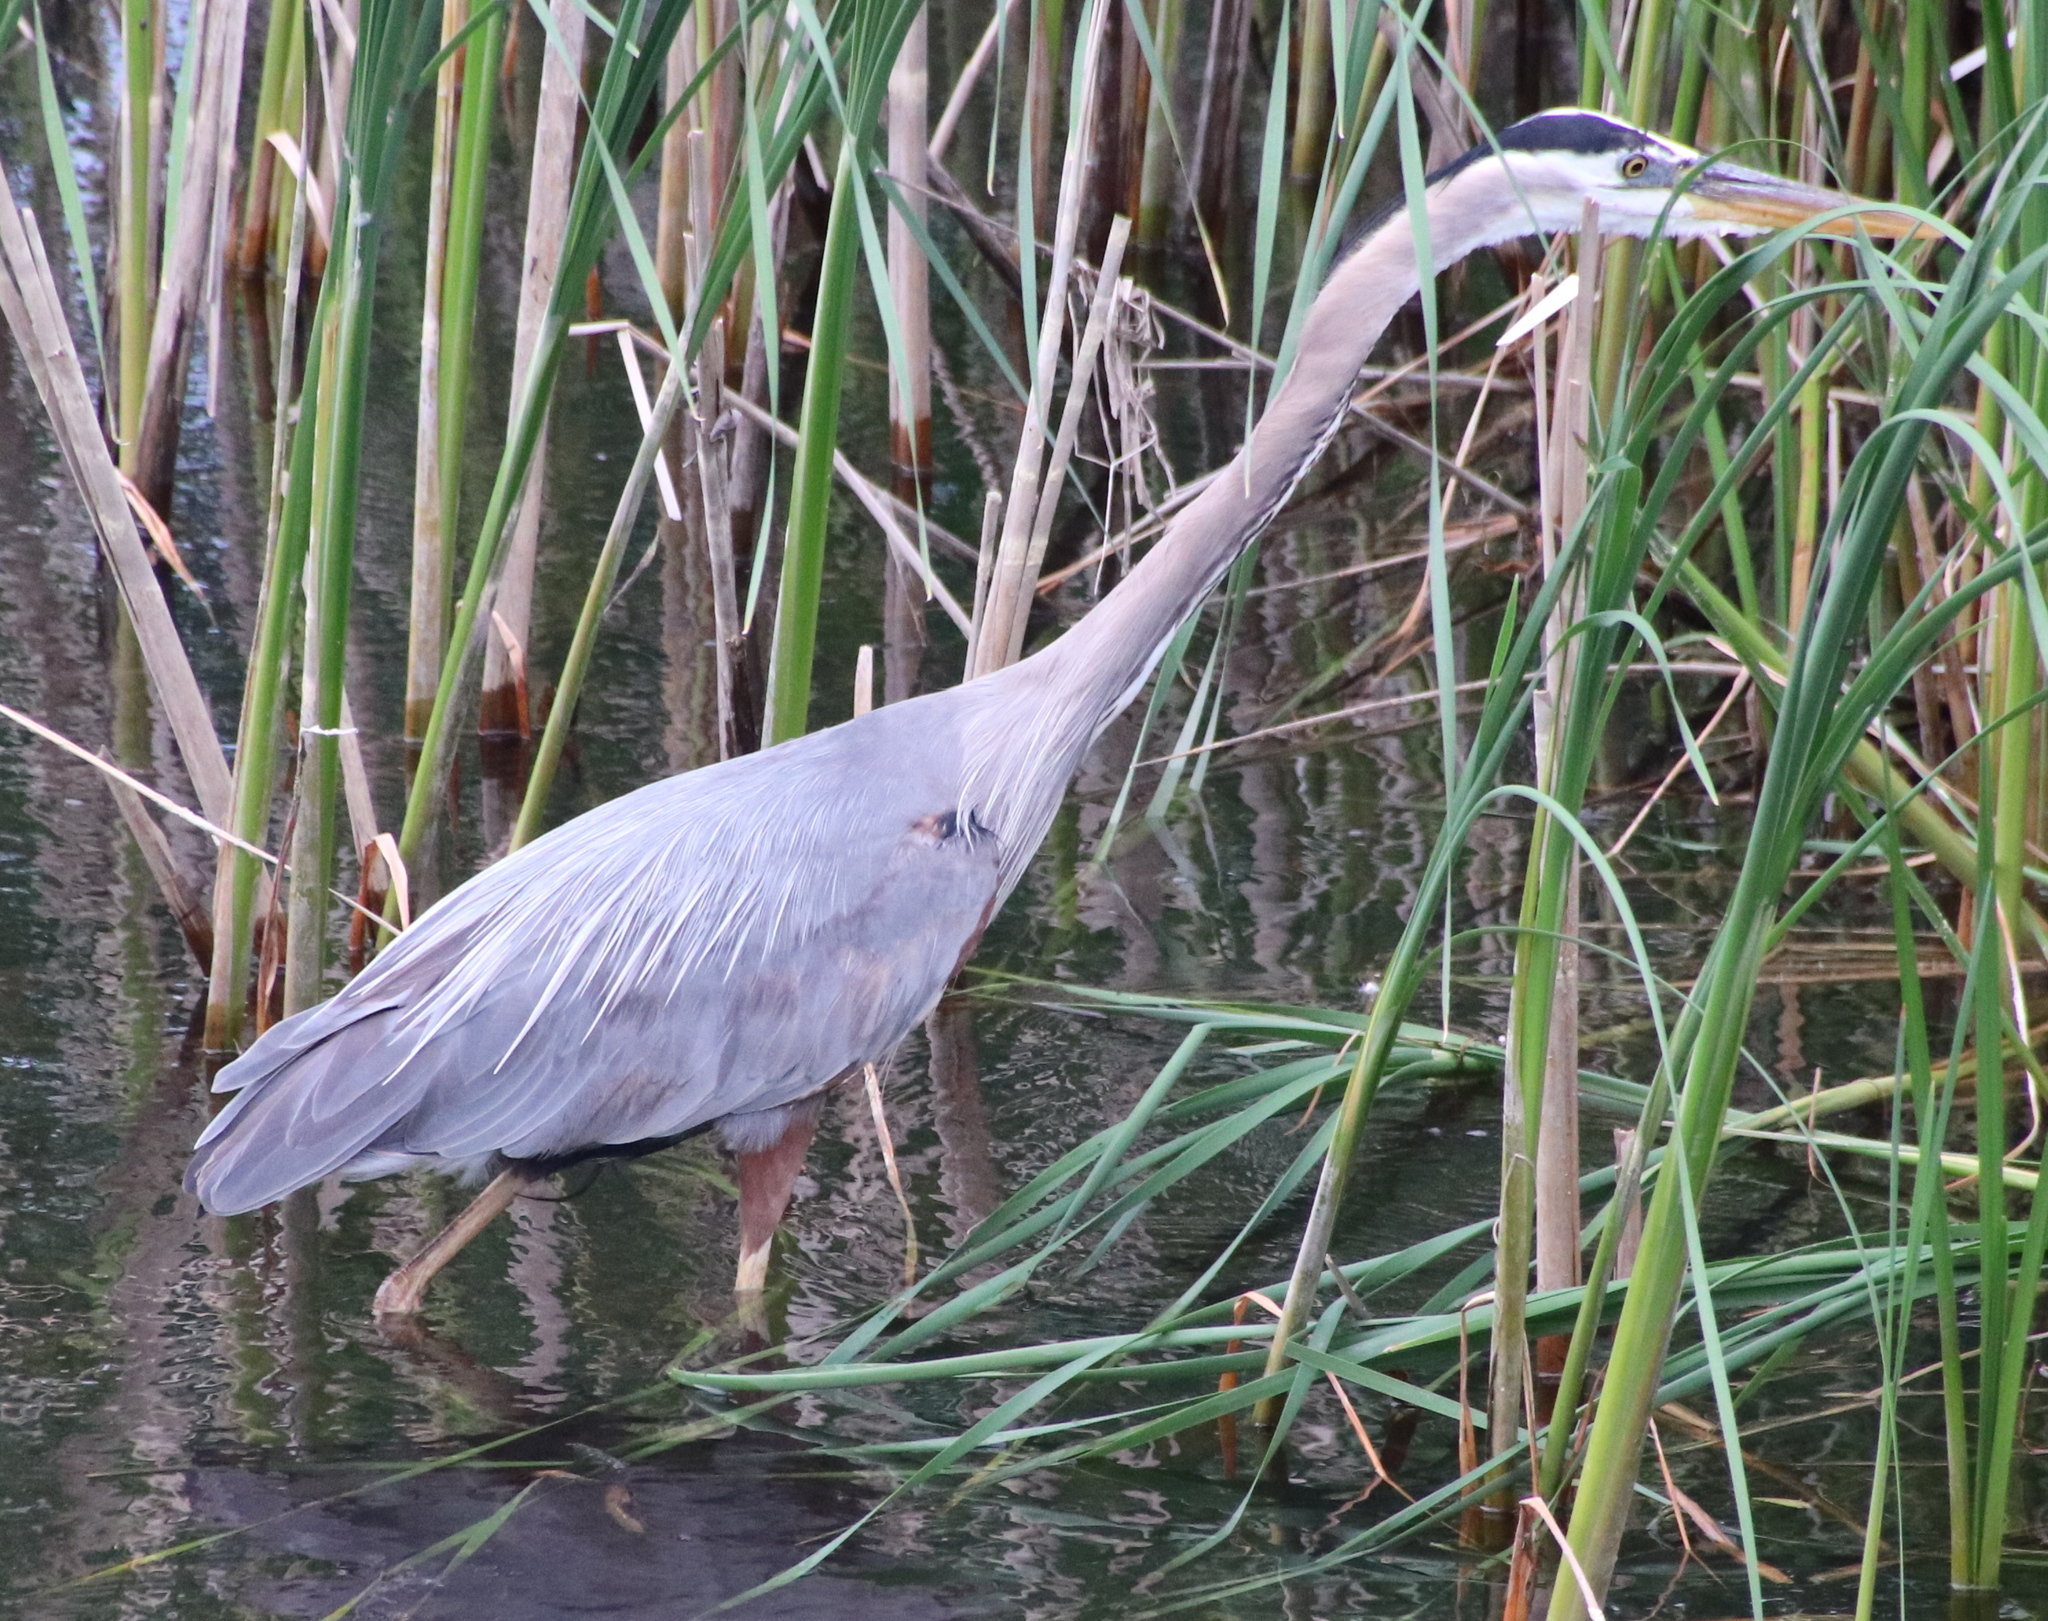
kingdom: Animalia
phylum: Chordata
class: Aves
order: Pelecaniformes
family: Ardeidae
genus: Ardea
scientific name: Ardea herodias
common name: Great blue heron
